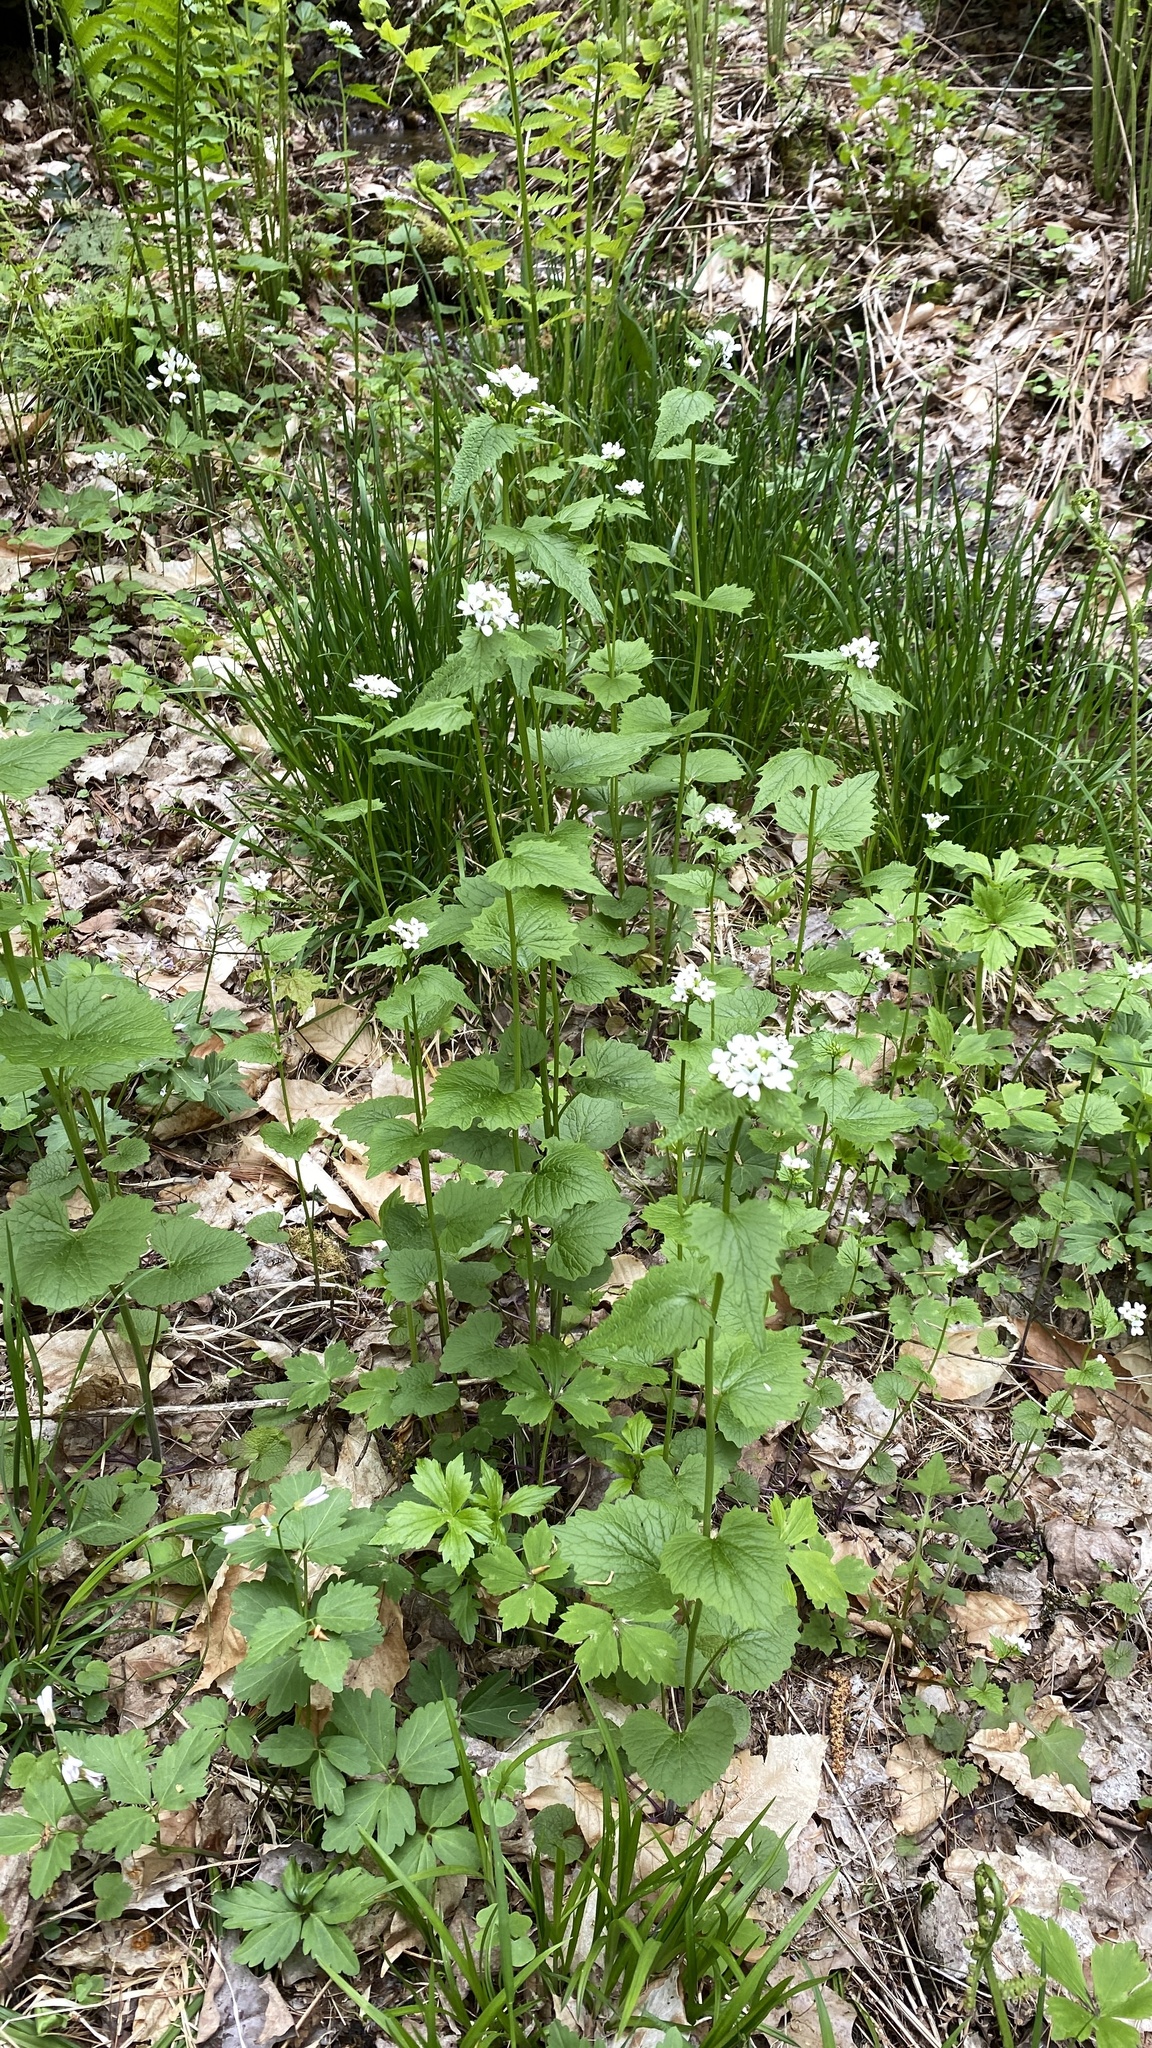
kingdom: Plantae
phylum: Tracheophyta
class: Magnoliopsida
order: Brassicales
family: Brassicaceae
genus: Alliaria
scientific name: Alliaria petiolata
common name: Garlic mustard
